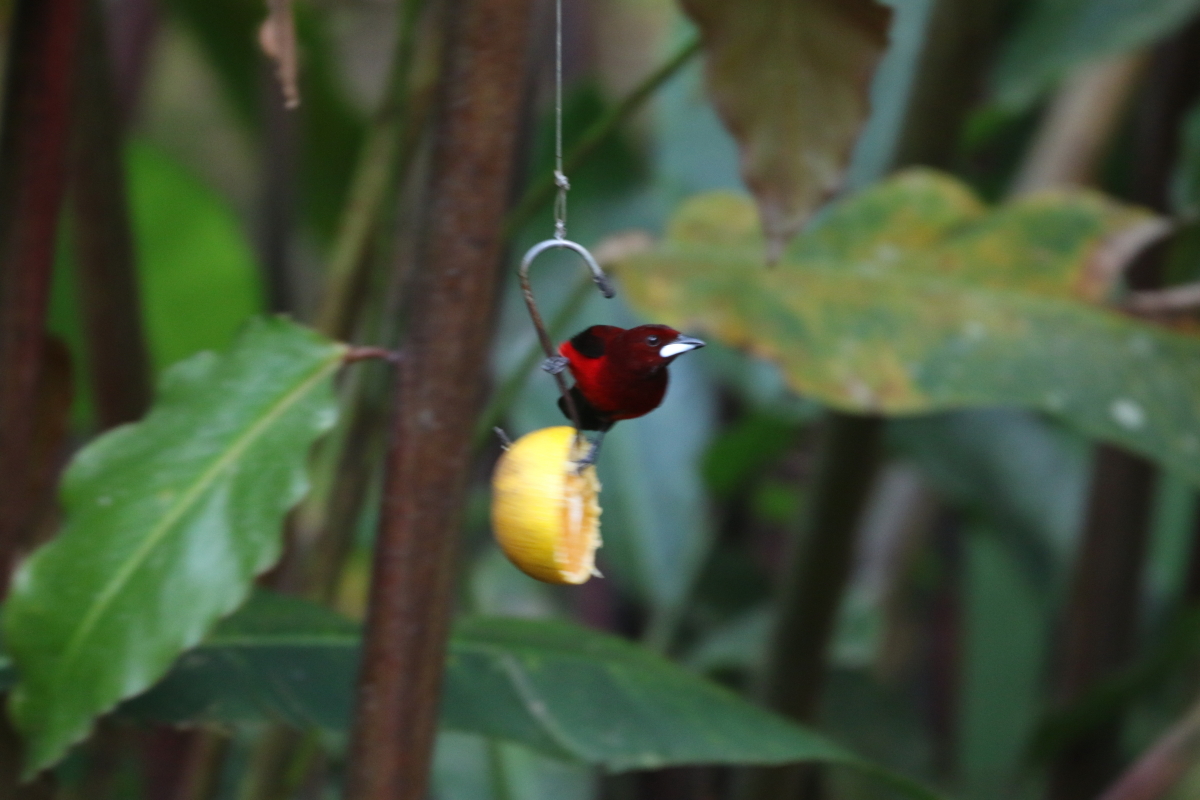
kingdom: Animalia
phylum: Chordata
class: Aves
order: Passeriformes
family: Thraupidae
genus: Ramphocelus
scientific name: Ramphocelus dimidiatus
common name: Crimson-backed tanager
